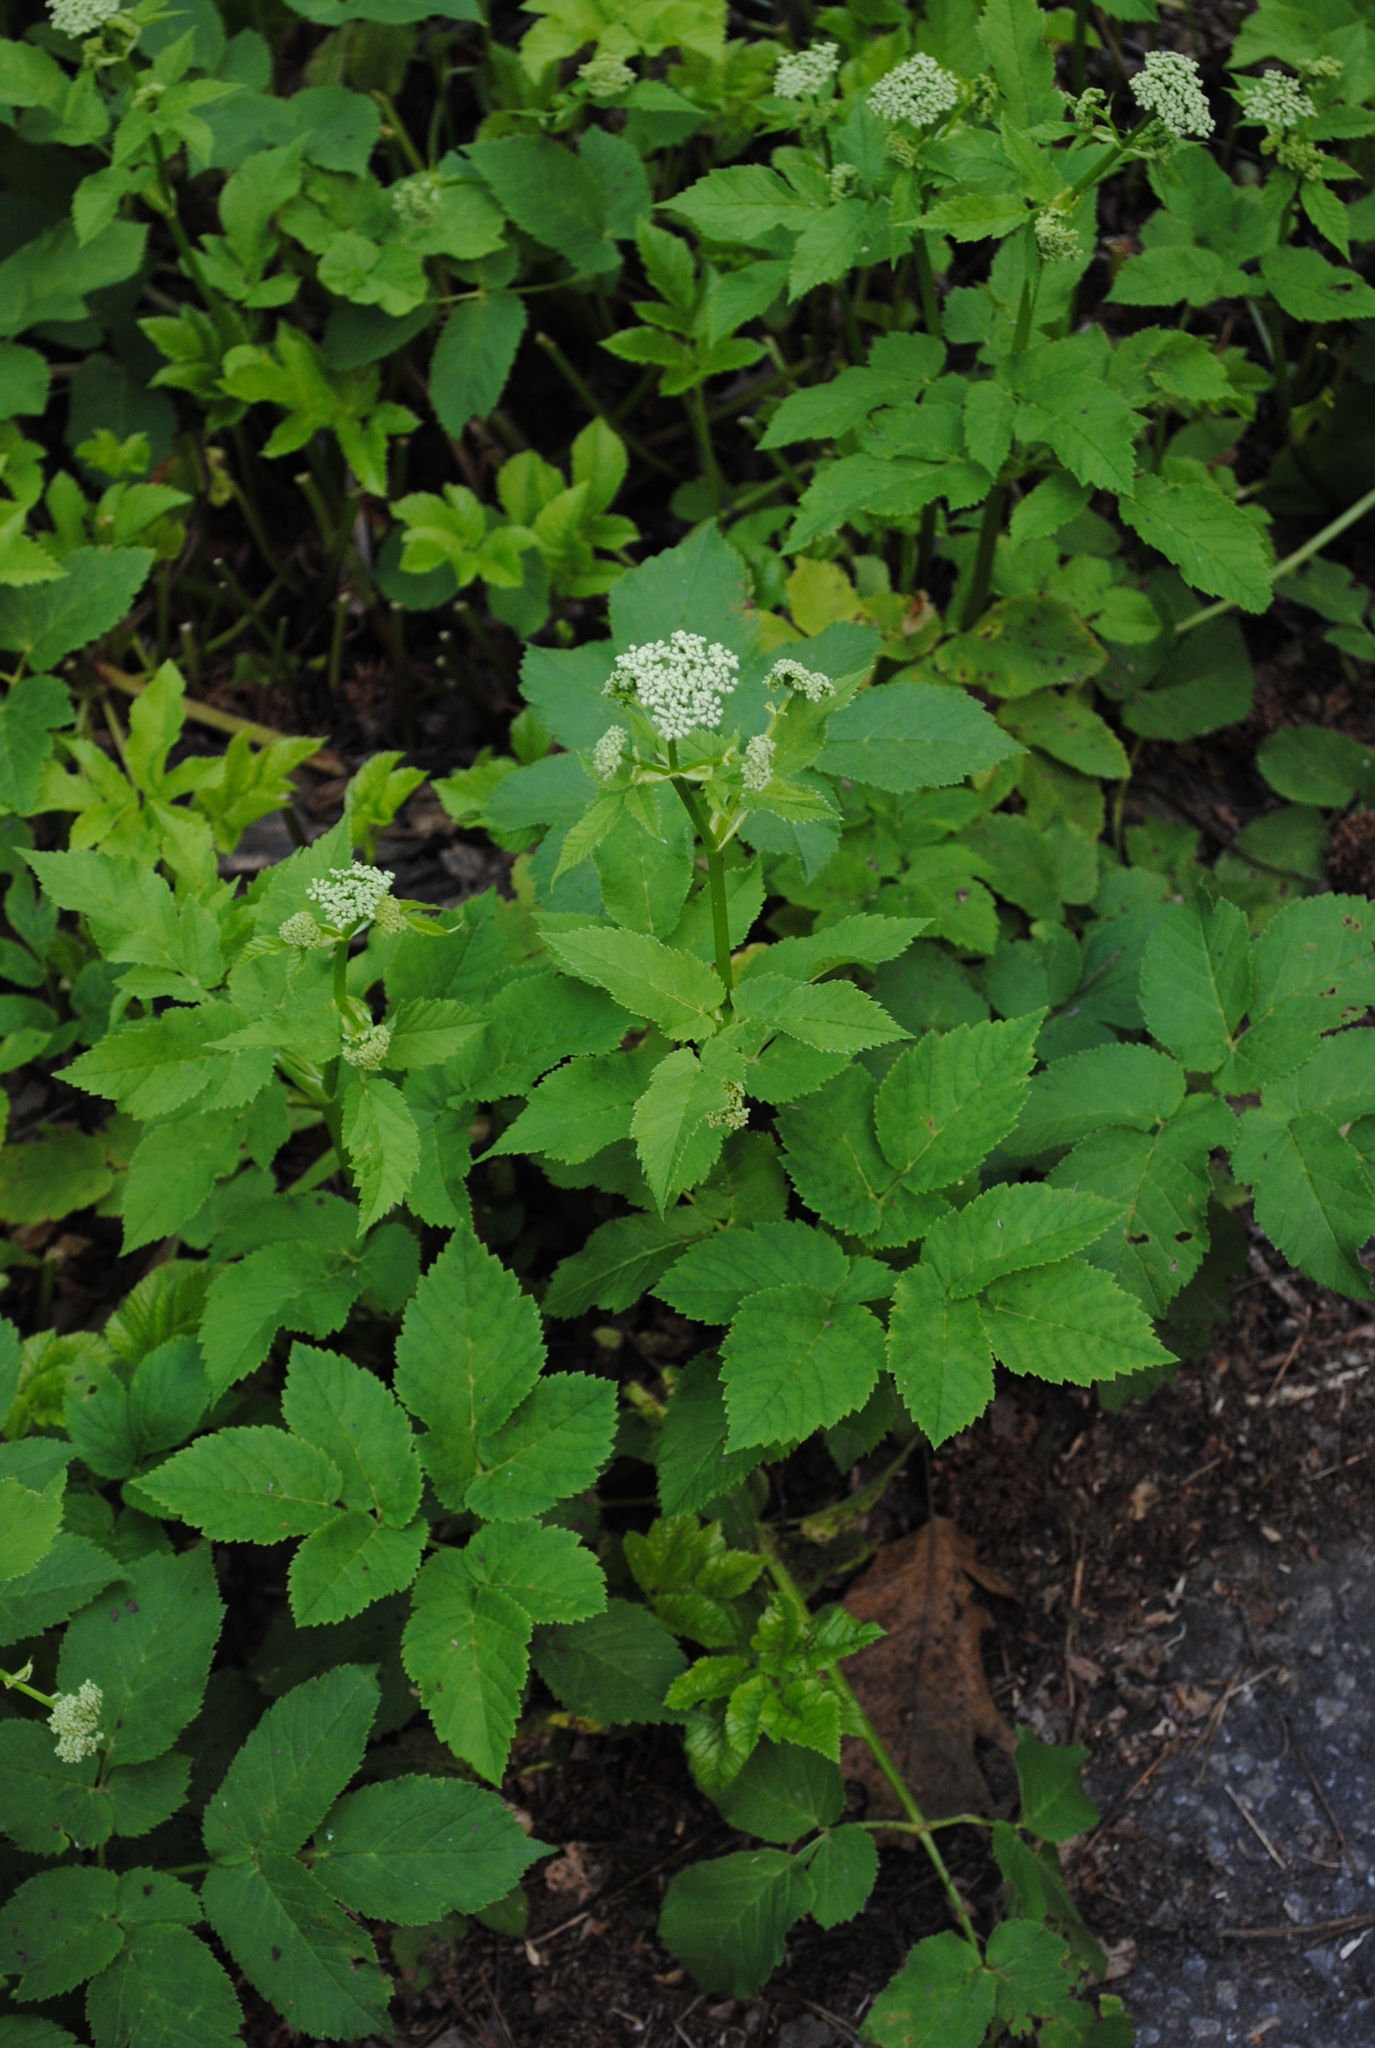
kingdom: Plantae
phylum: Tracheophyta
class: Magnoliopsida
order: Apiales
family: Apiaceae
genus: Aegopodium
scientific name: Aegopodium podagraria
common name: Ground-elder
